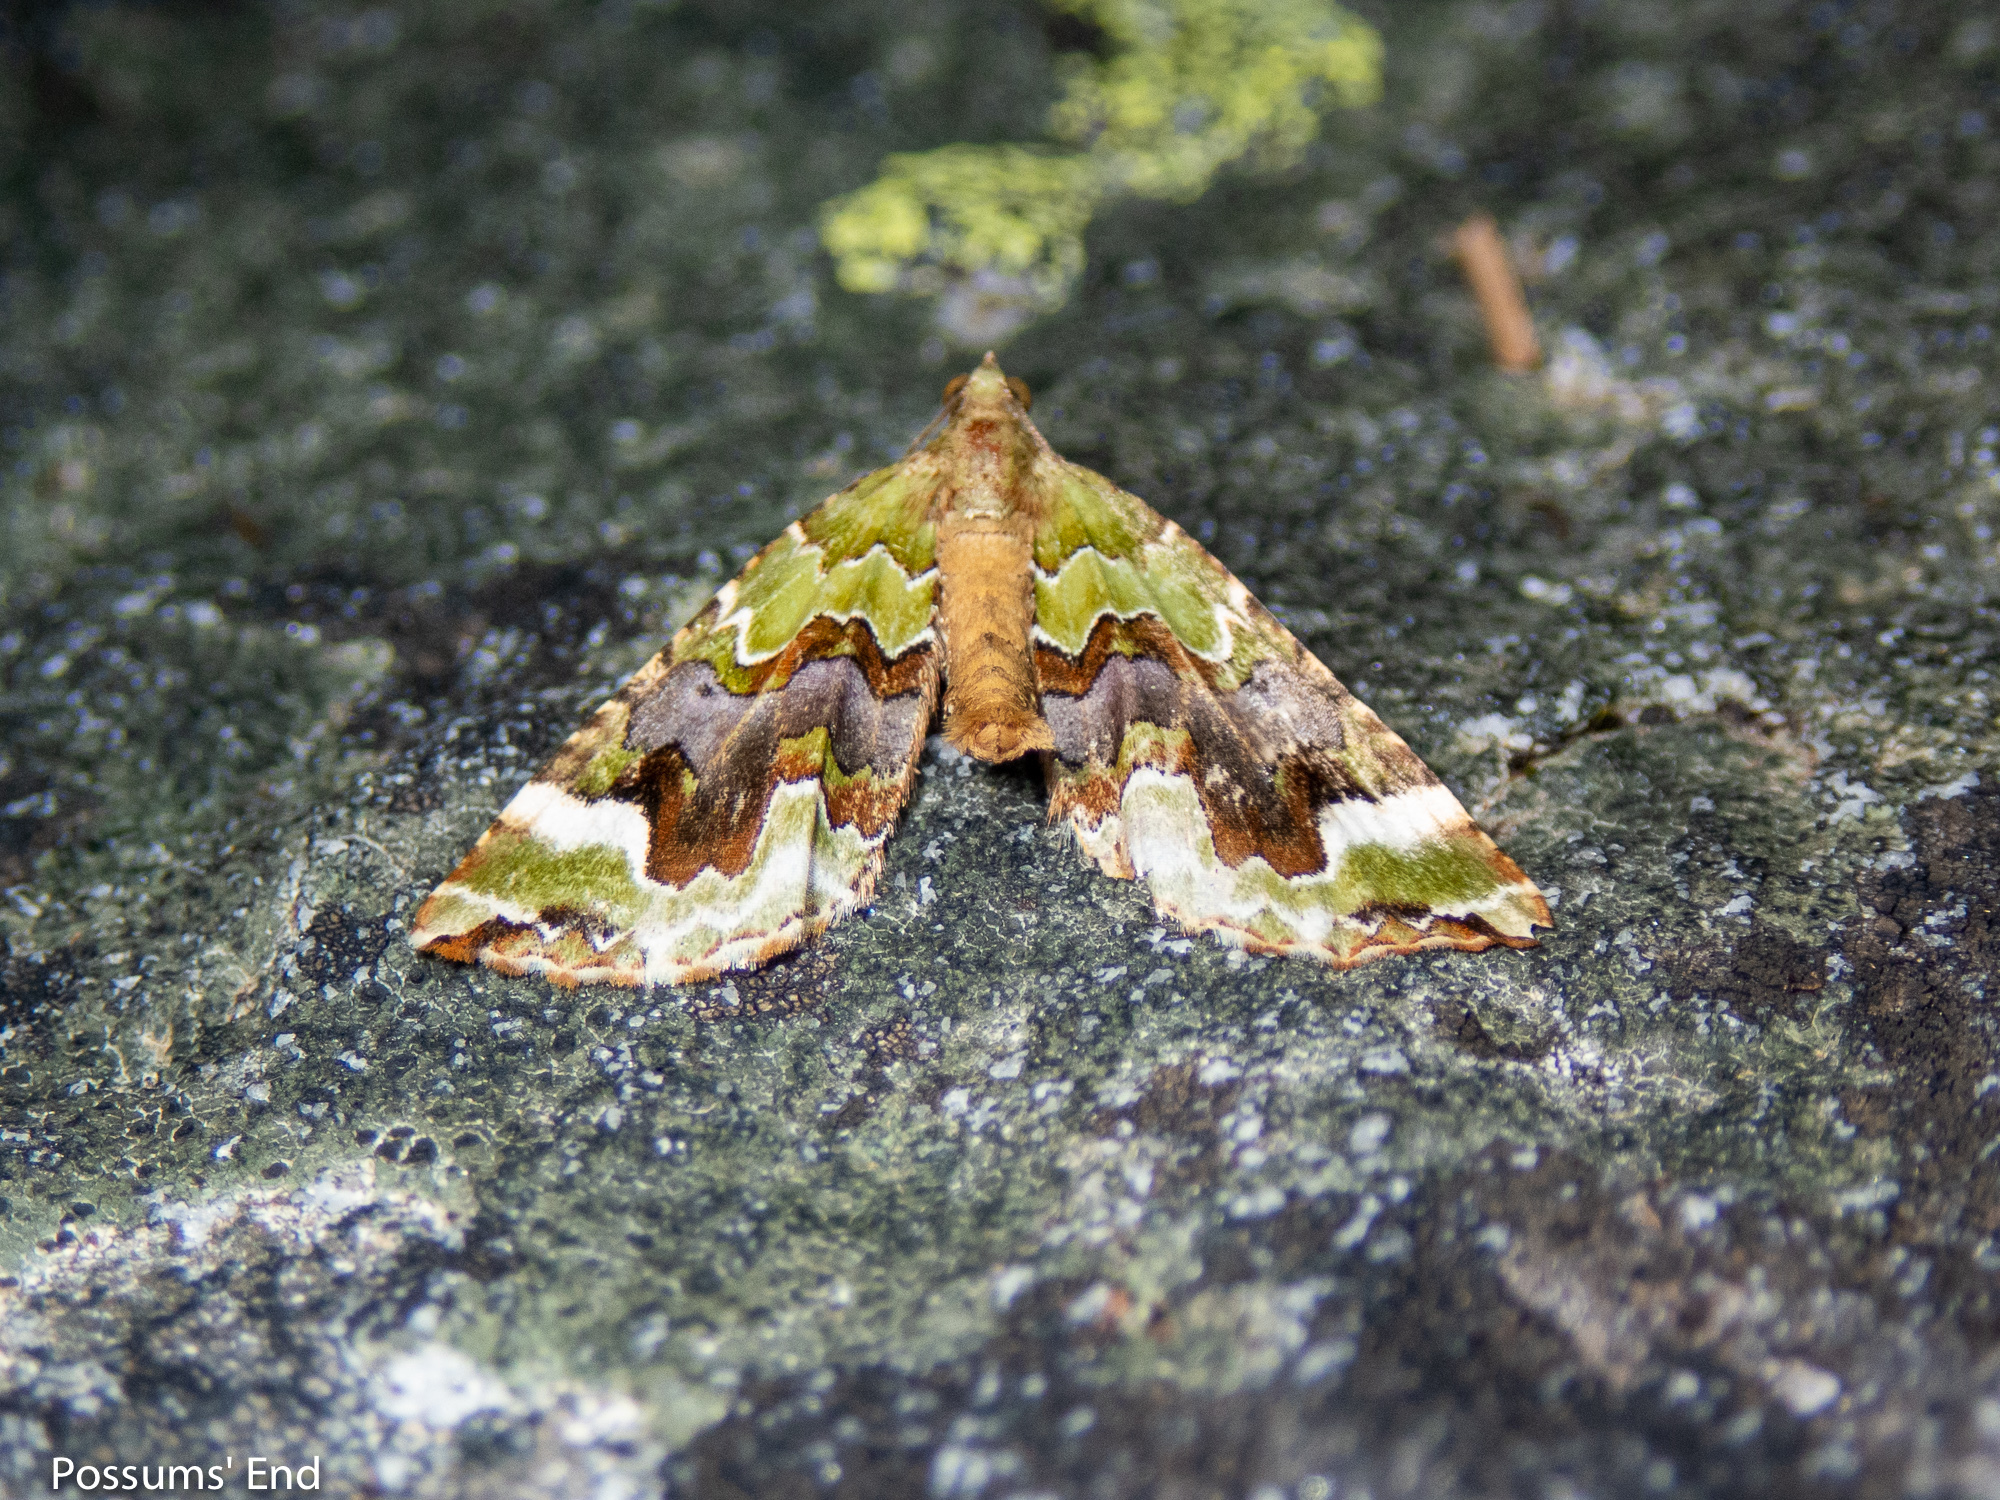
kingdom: Animalia
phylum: Arthropoda
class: Insecta
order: Lepidoptera
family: Geometridae
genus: Hydriomena
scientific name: Hydriomena purpurifera
